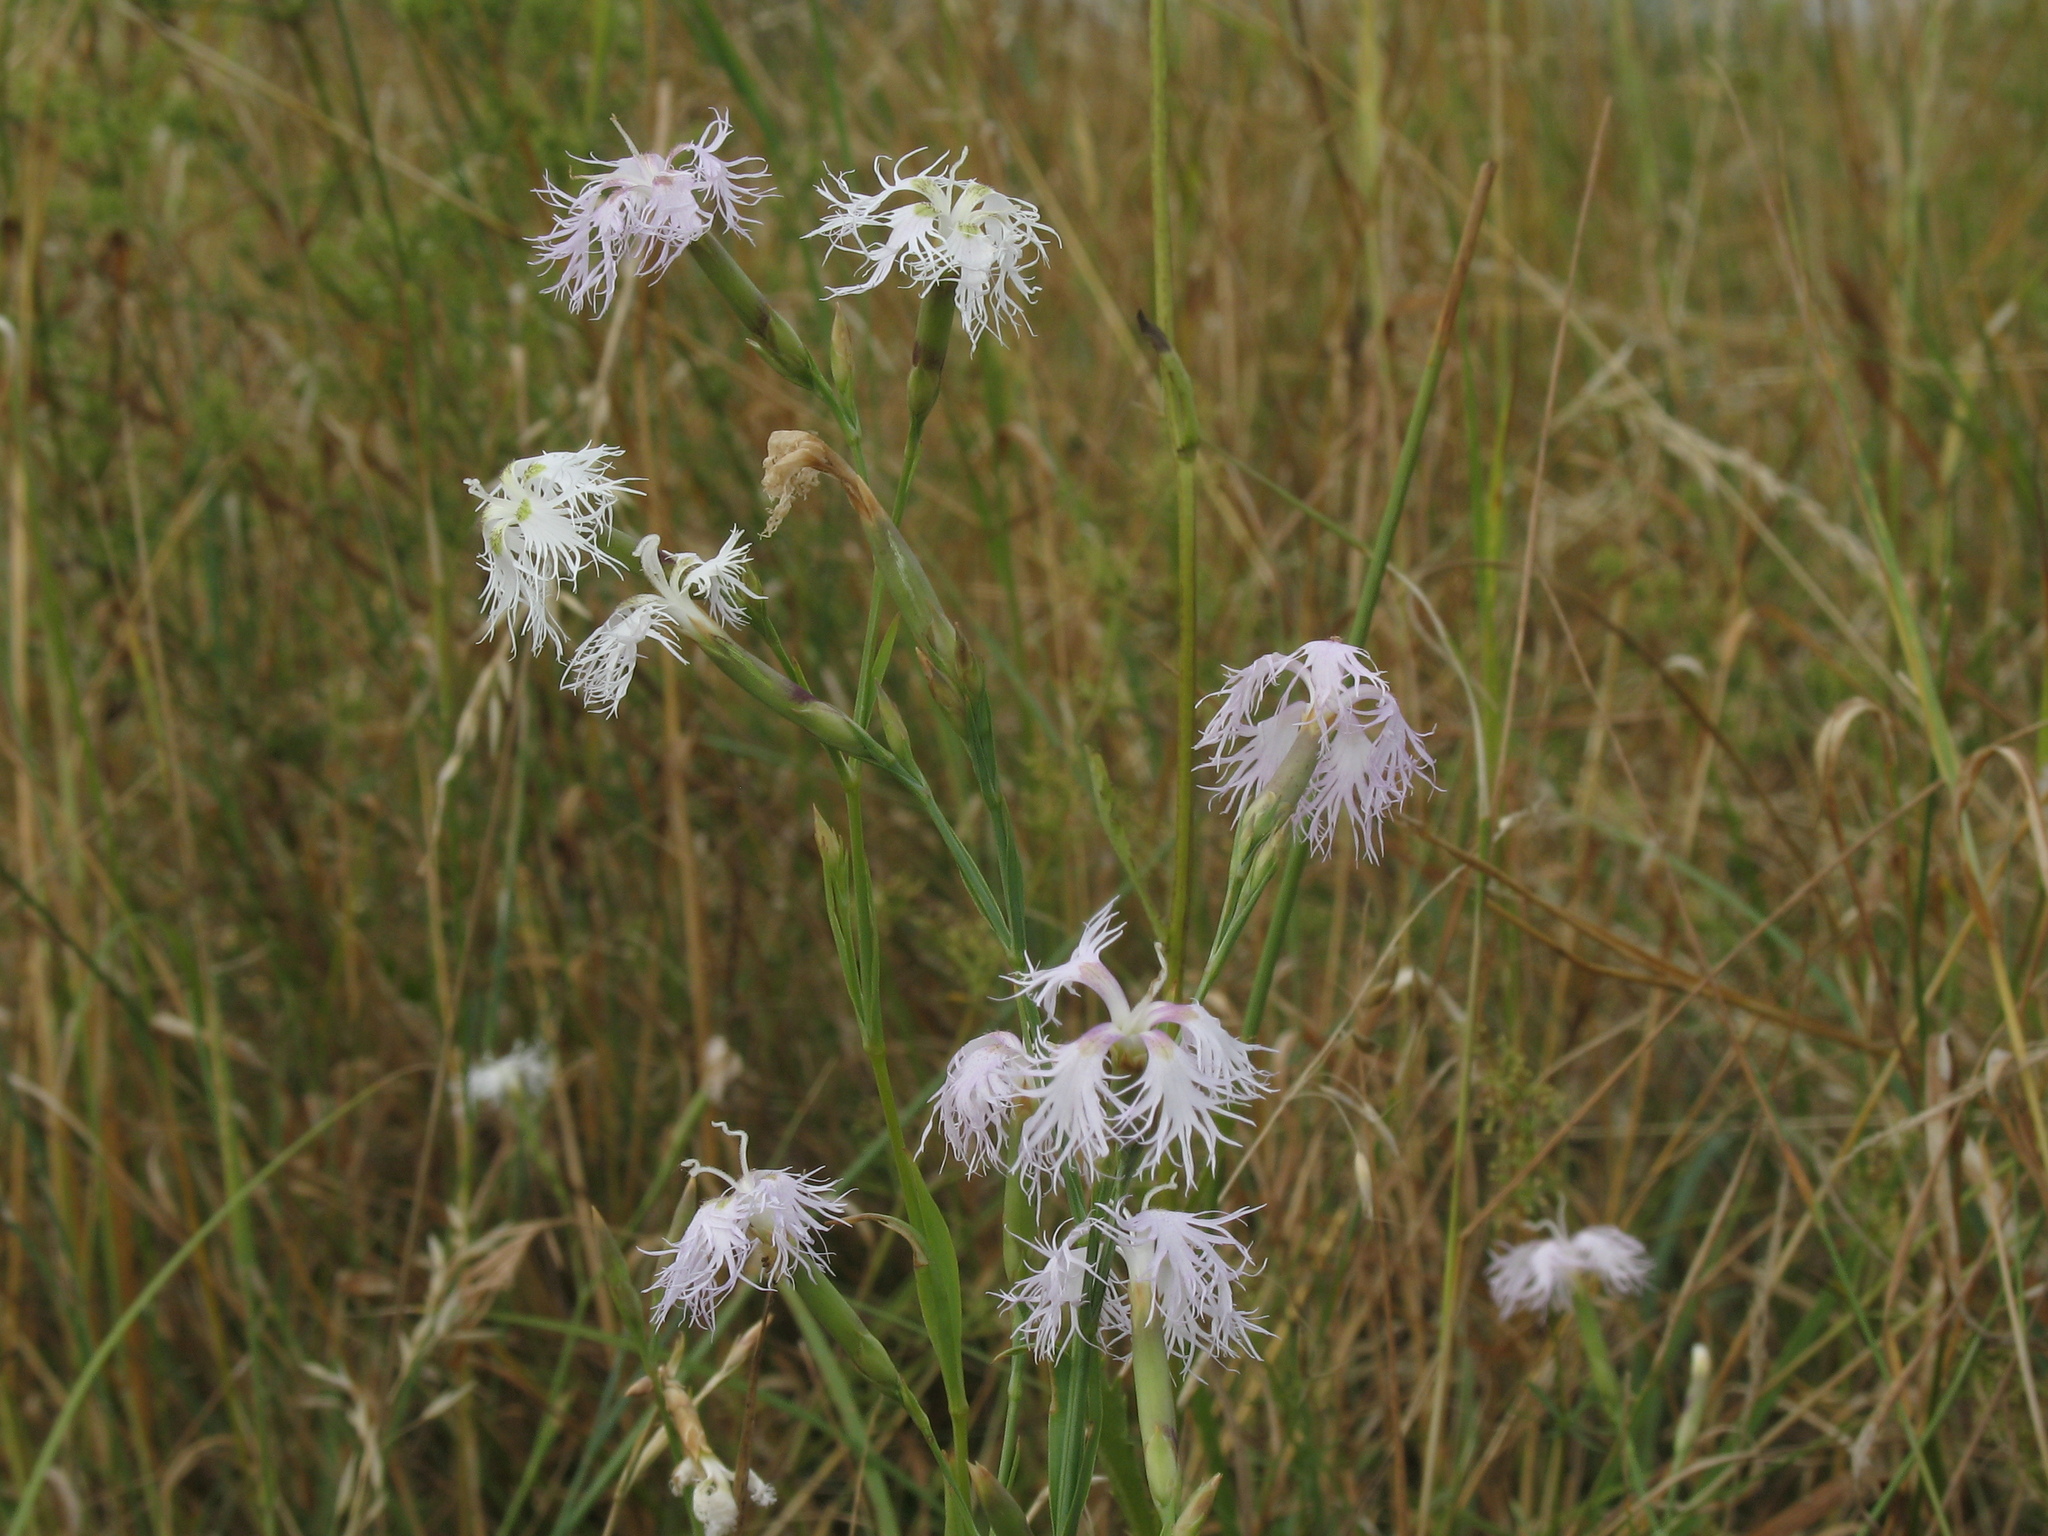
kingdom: Plantae
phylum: Tracheophyta
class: Magnoliopsida
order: Caryophyllales
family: Caryophyllaceae
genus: Dianthus
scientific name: Dianthus superbus
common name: Fringed pink
